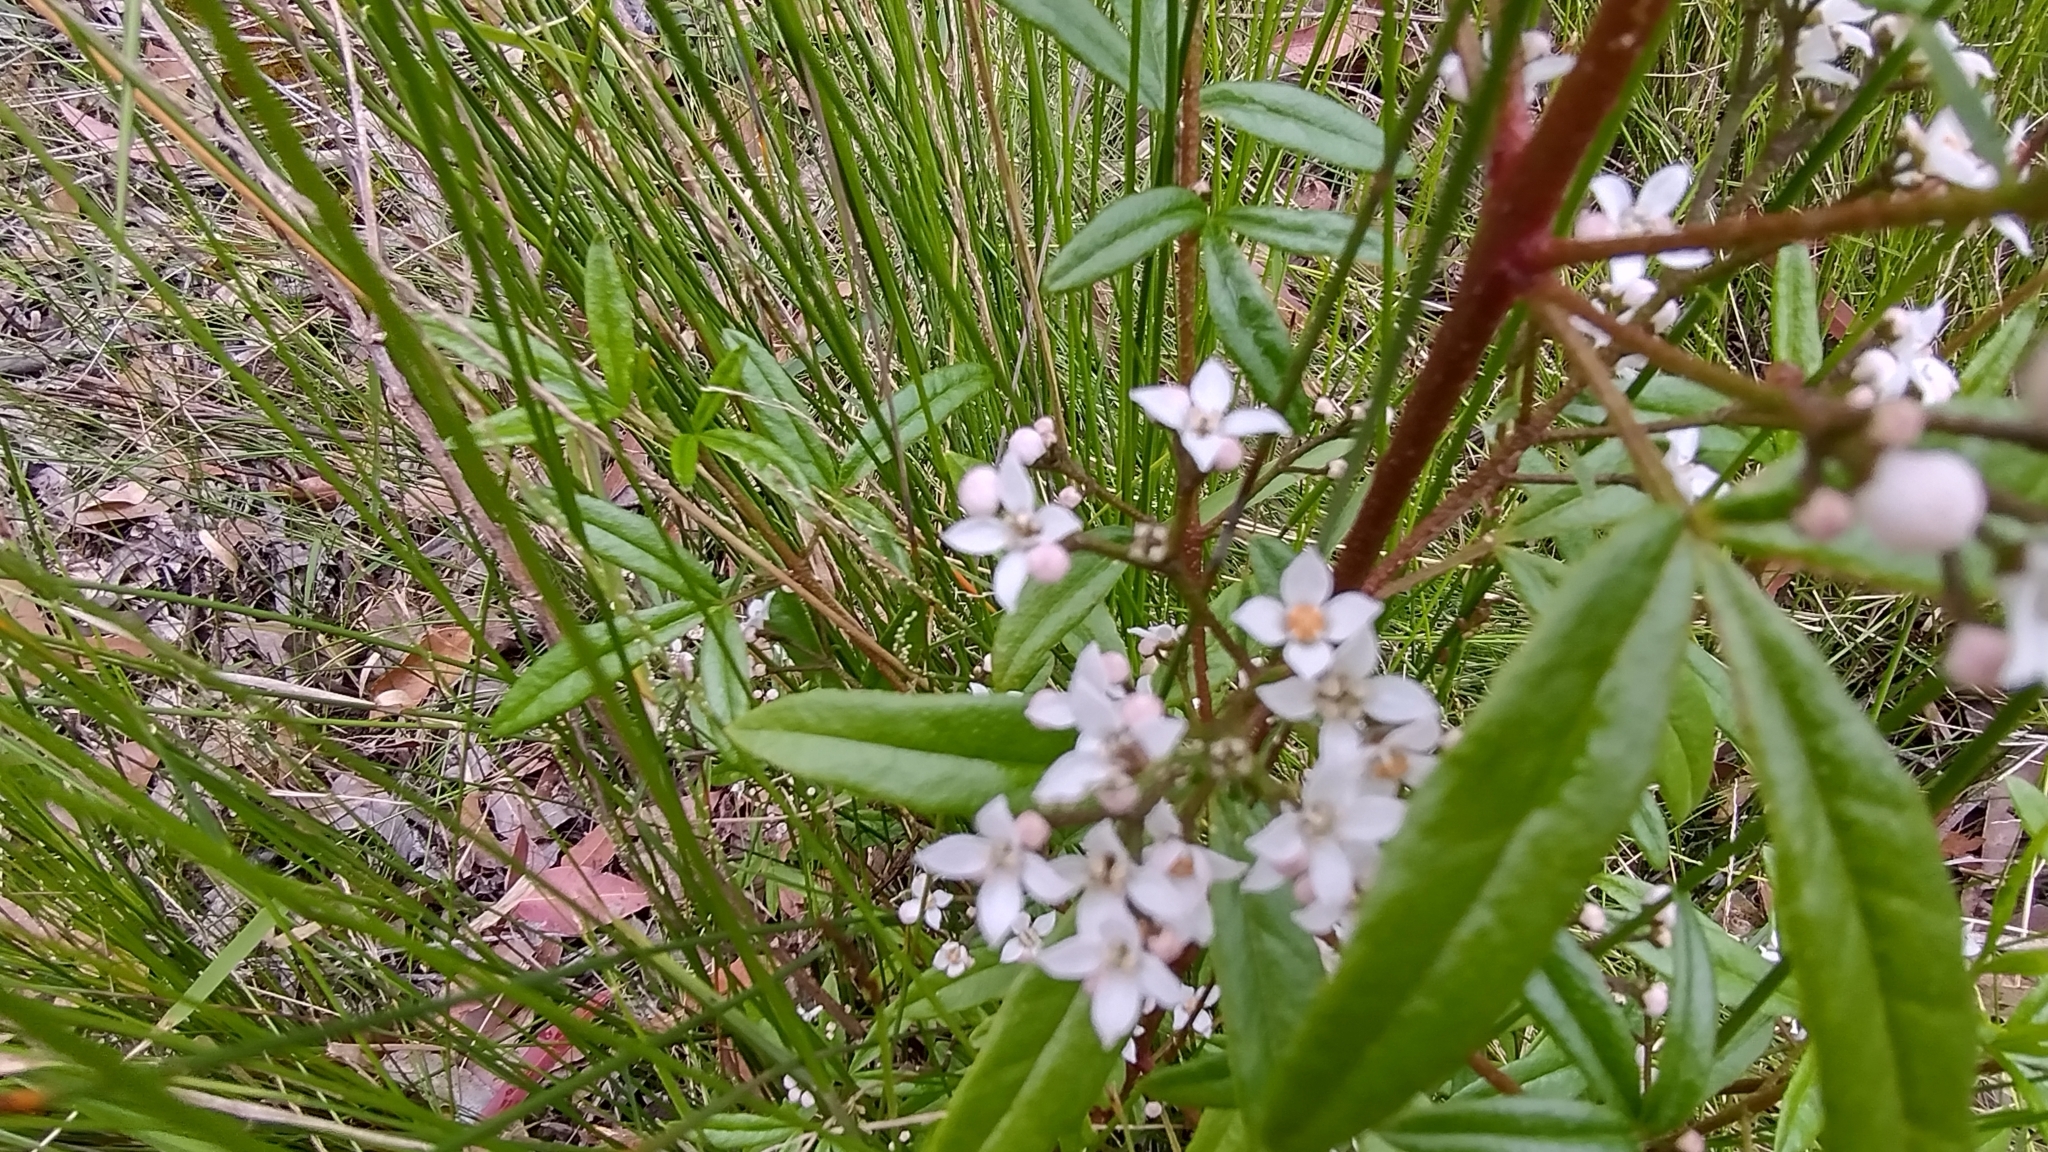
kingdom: Plantae
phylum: Tracheophyta
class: Magnoliopsida
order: Sapindales
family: Rutaceae
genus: Zieria
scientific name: Zieria smithii
